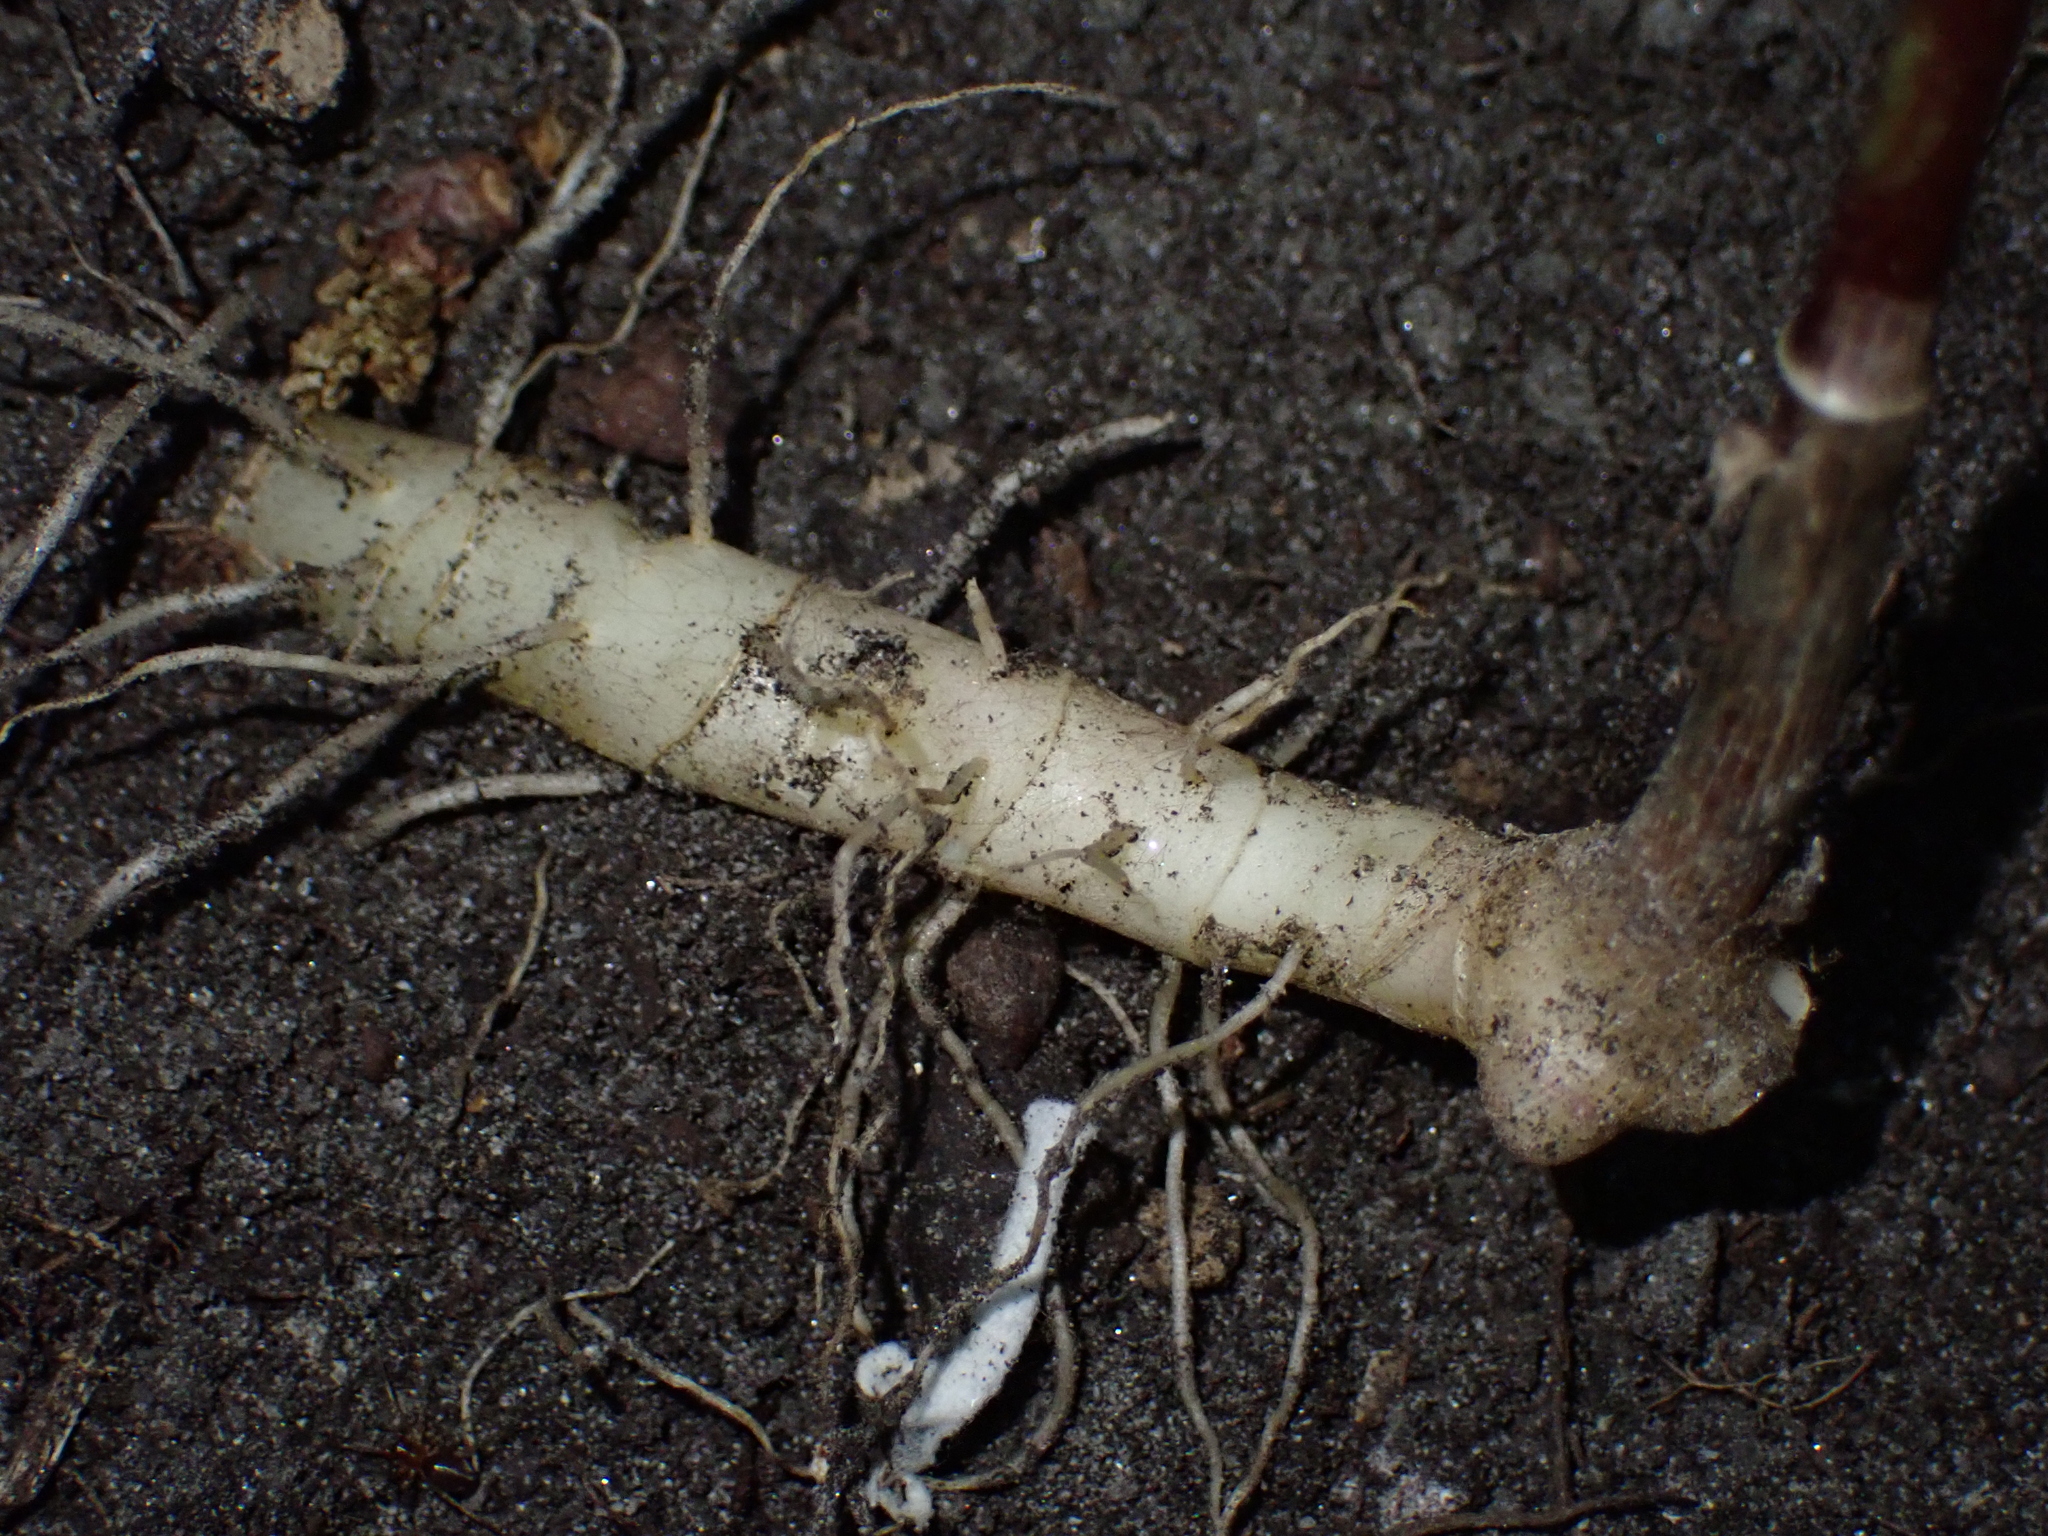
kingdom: Plantae
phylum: Tracheophyta
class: Liliopsida
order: Asparagales
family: Asparagaceae
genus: Polygonatum
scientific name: Polygonatum latifolium
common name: Broadleaf solomon's seal
